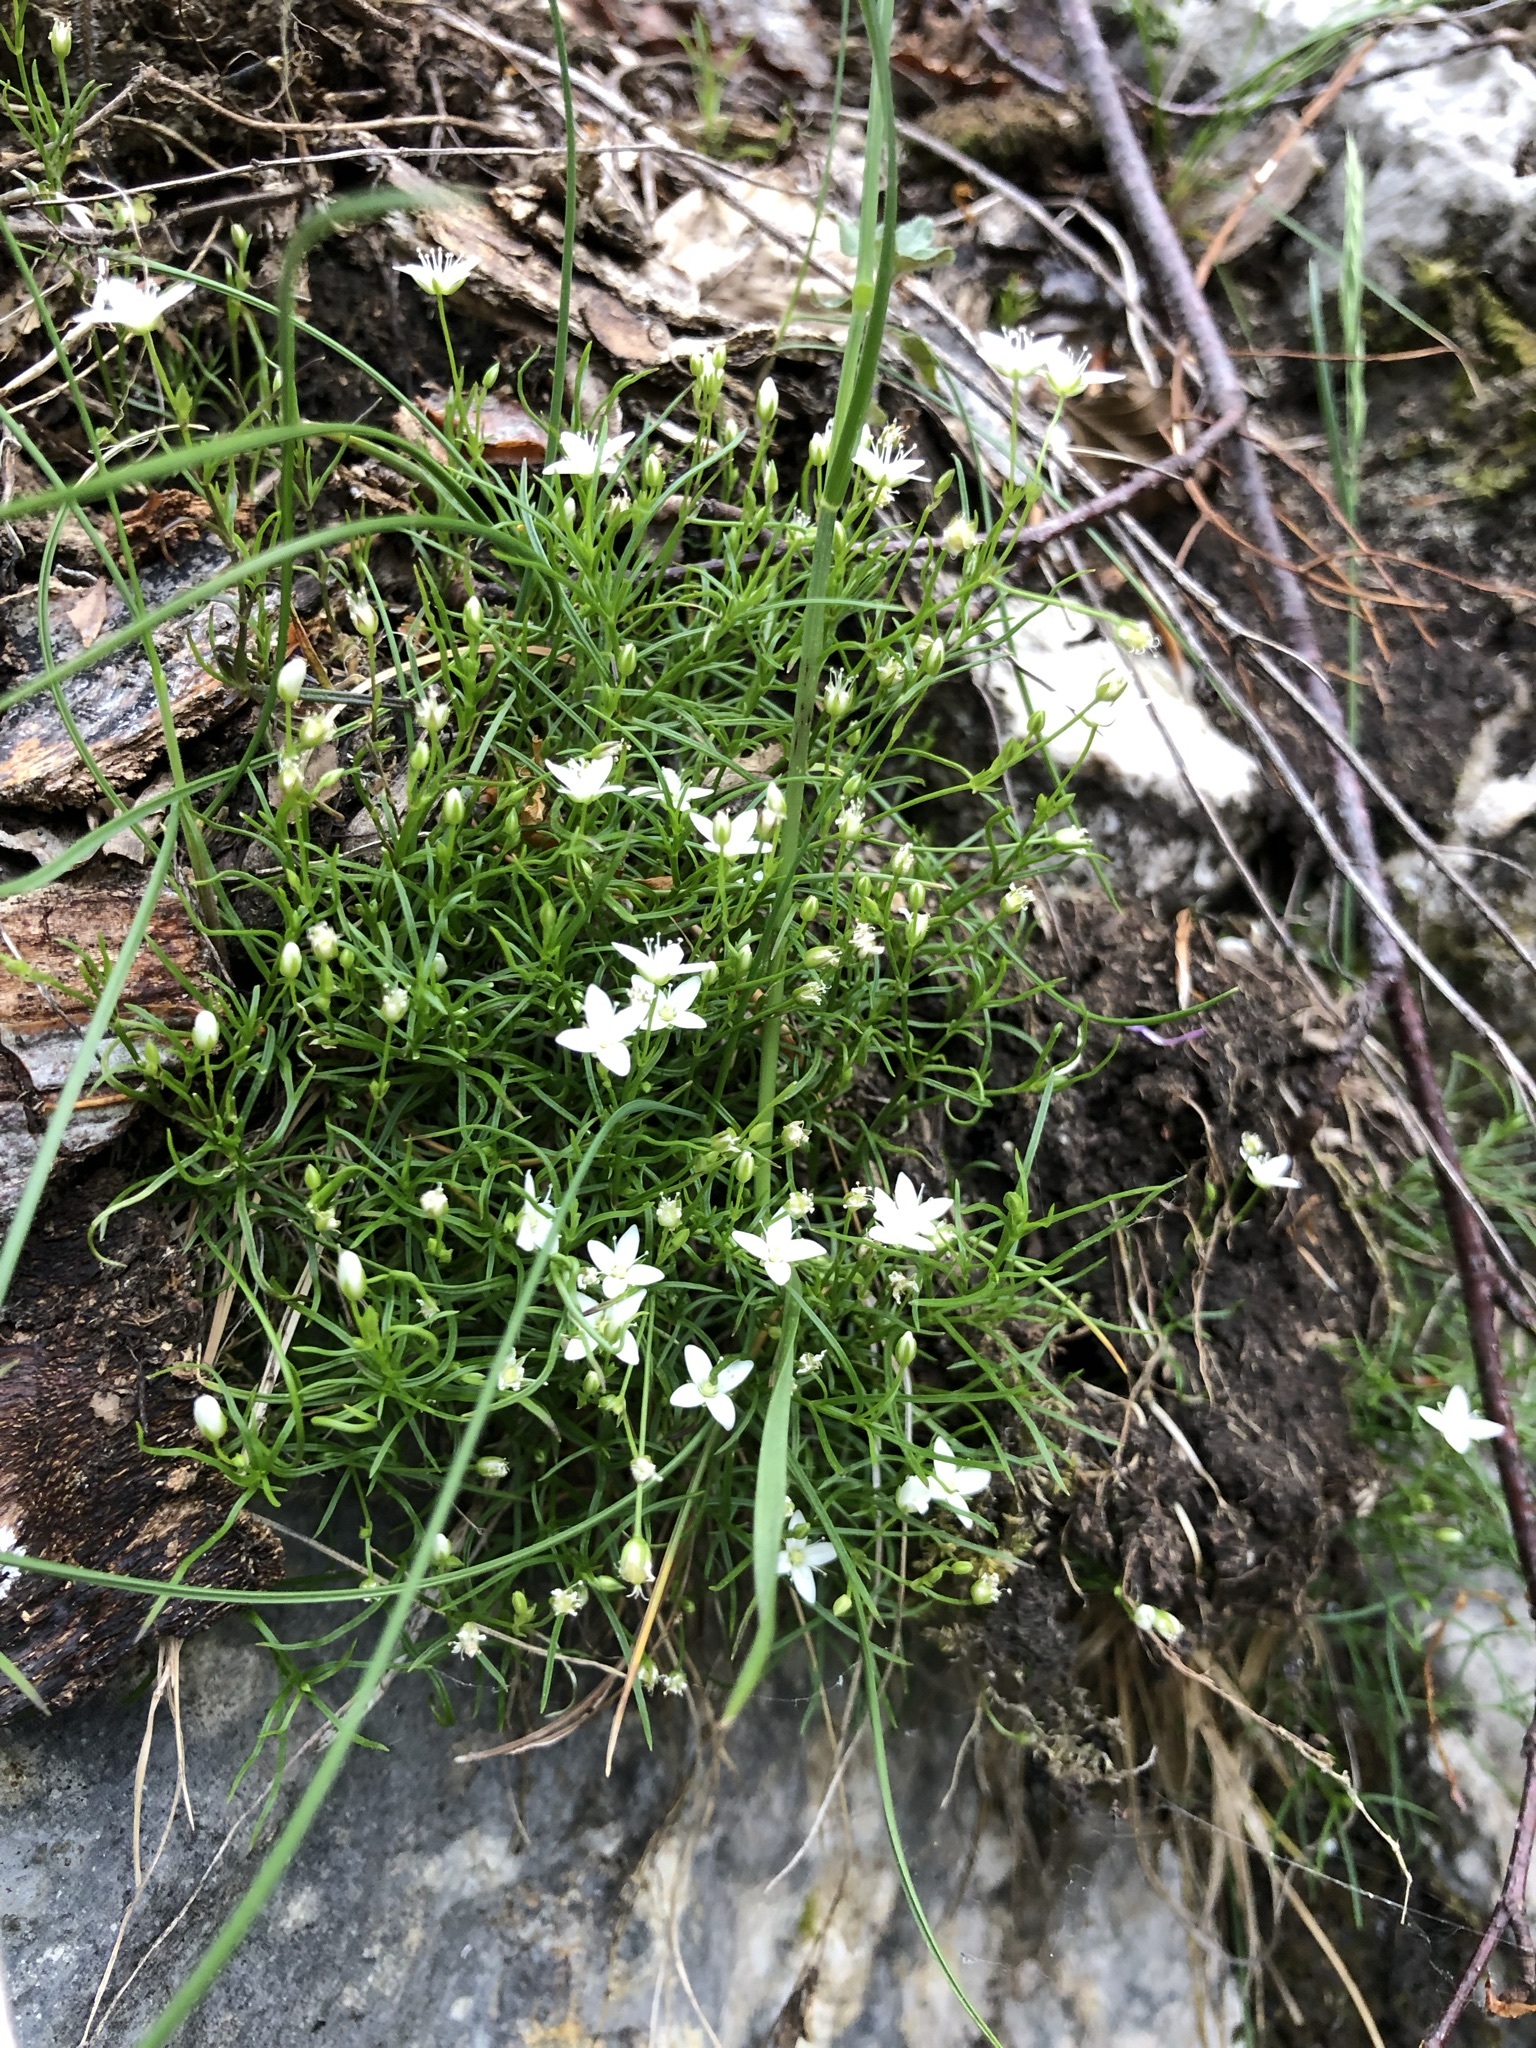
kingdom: Plantae
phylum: Tracheophyta
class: Magnoliopsida
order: Caryophyllales
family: Caryophyllaceae
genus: Moehringia
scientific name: Moehringia muscosa
